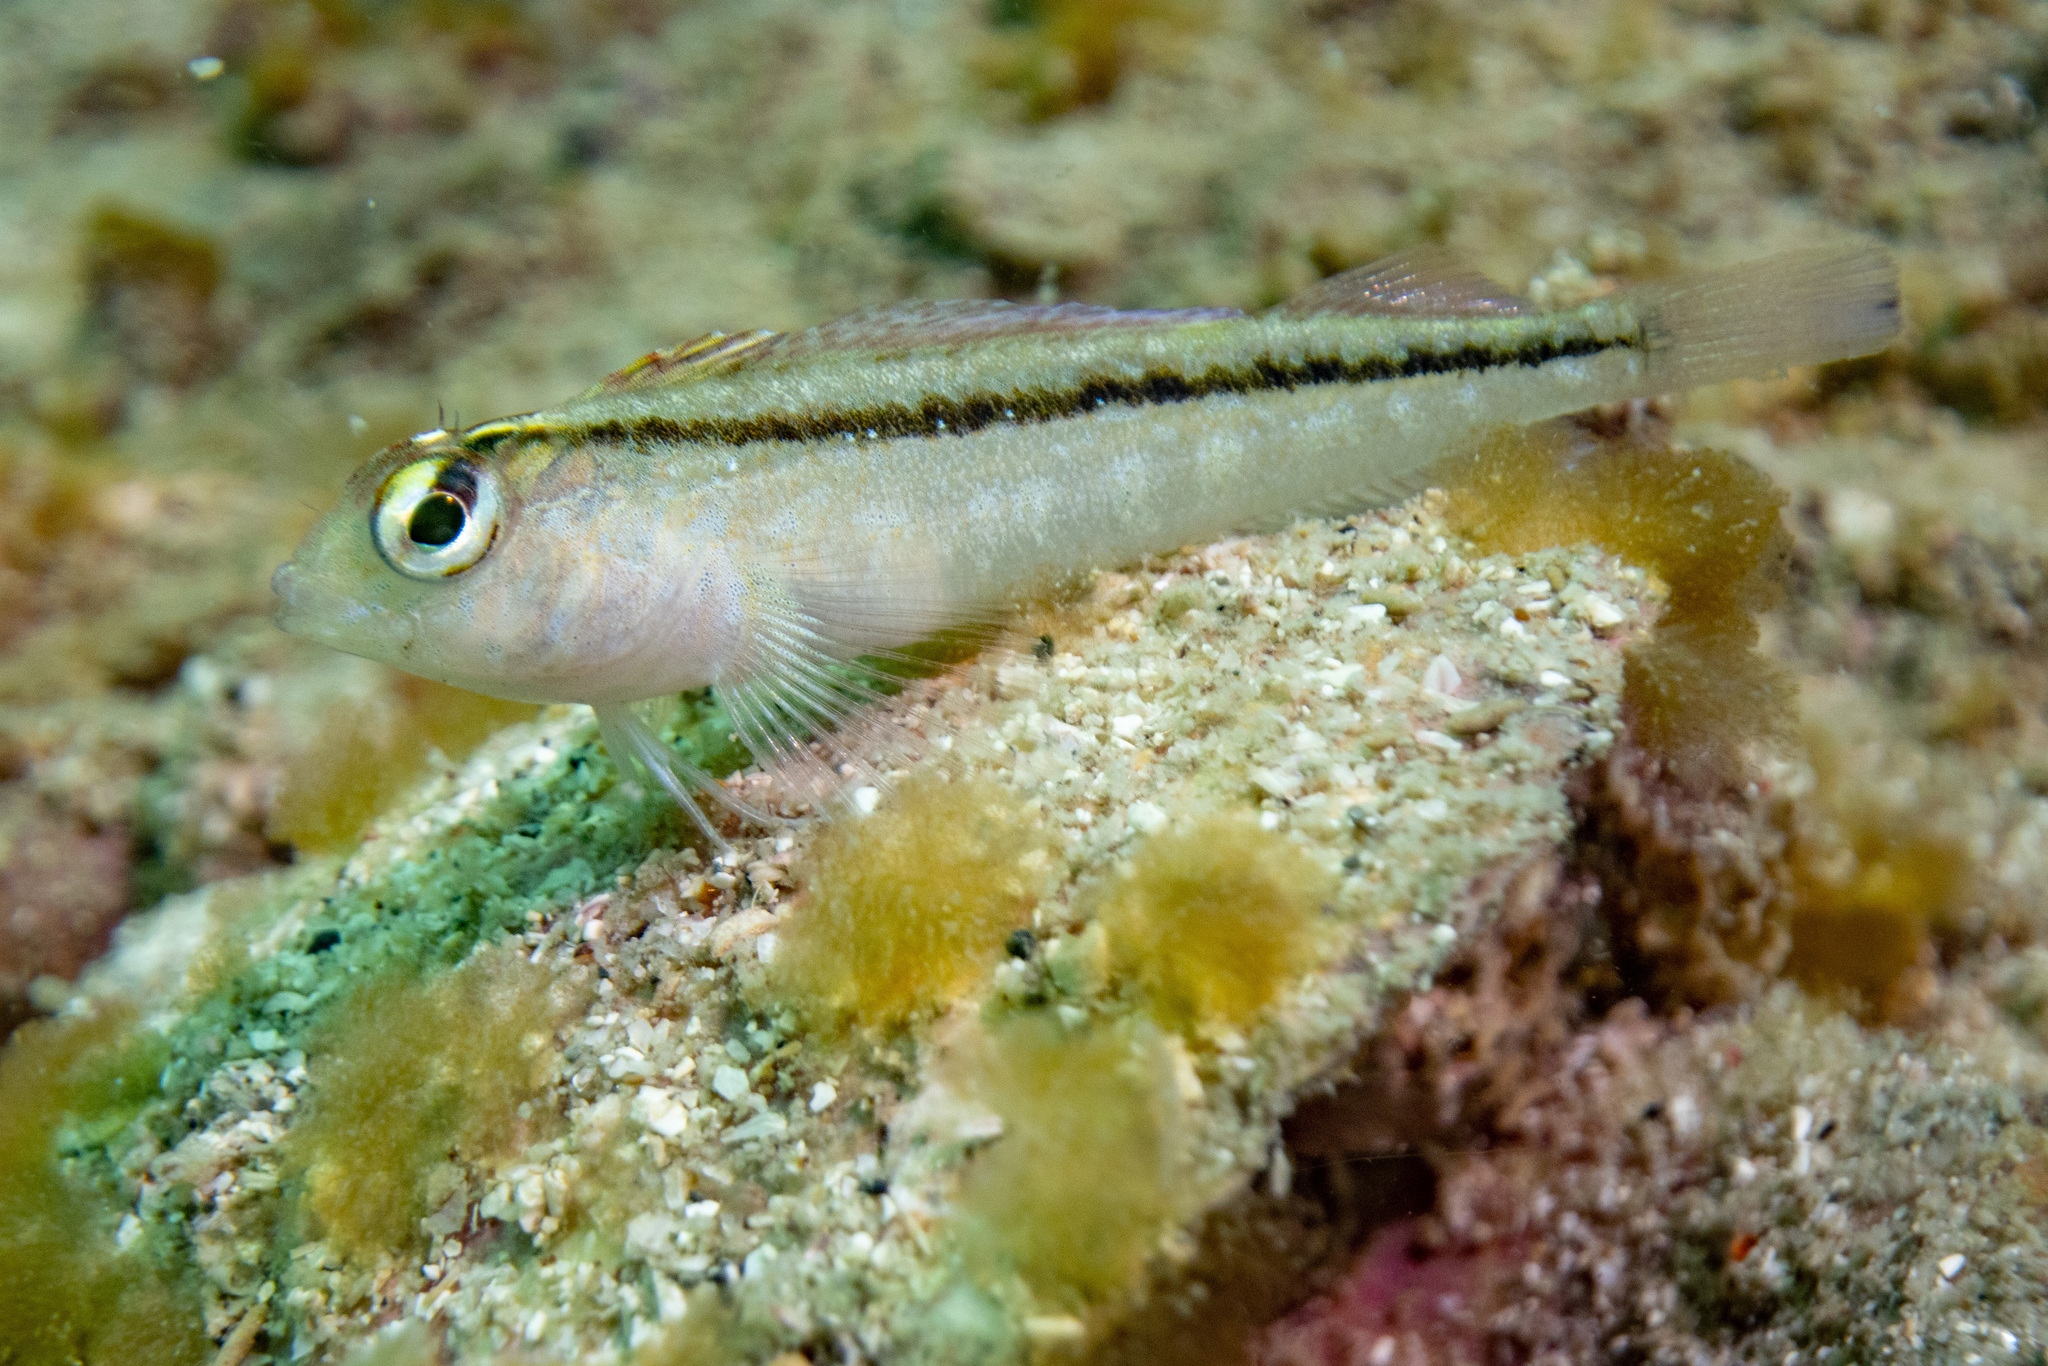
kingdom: Animalia
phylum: Chordata
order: Perciformes
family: Tripterygiidae
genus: Forsterygion
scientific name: Forsterygion lapillum
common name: Common triplefin
